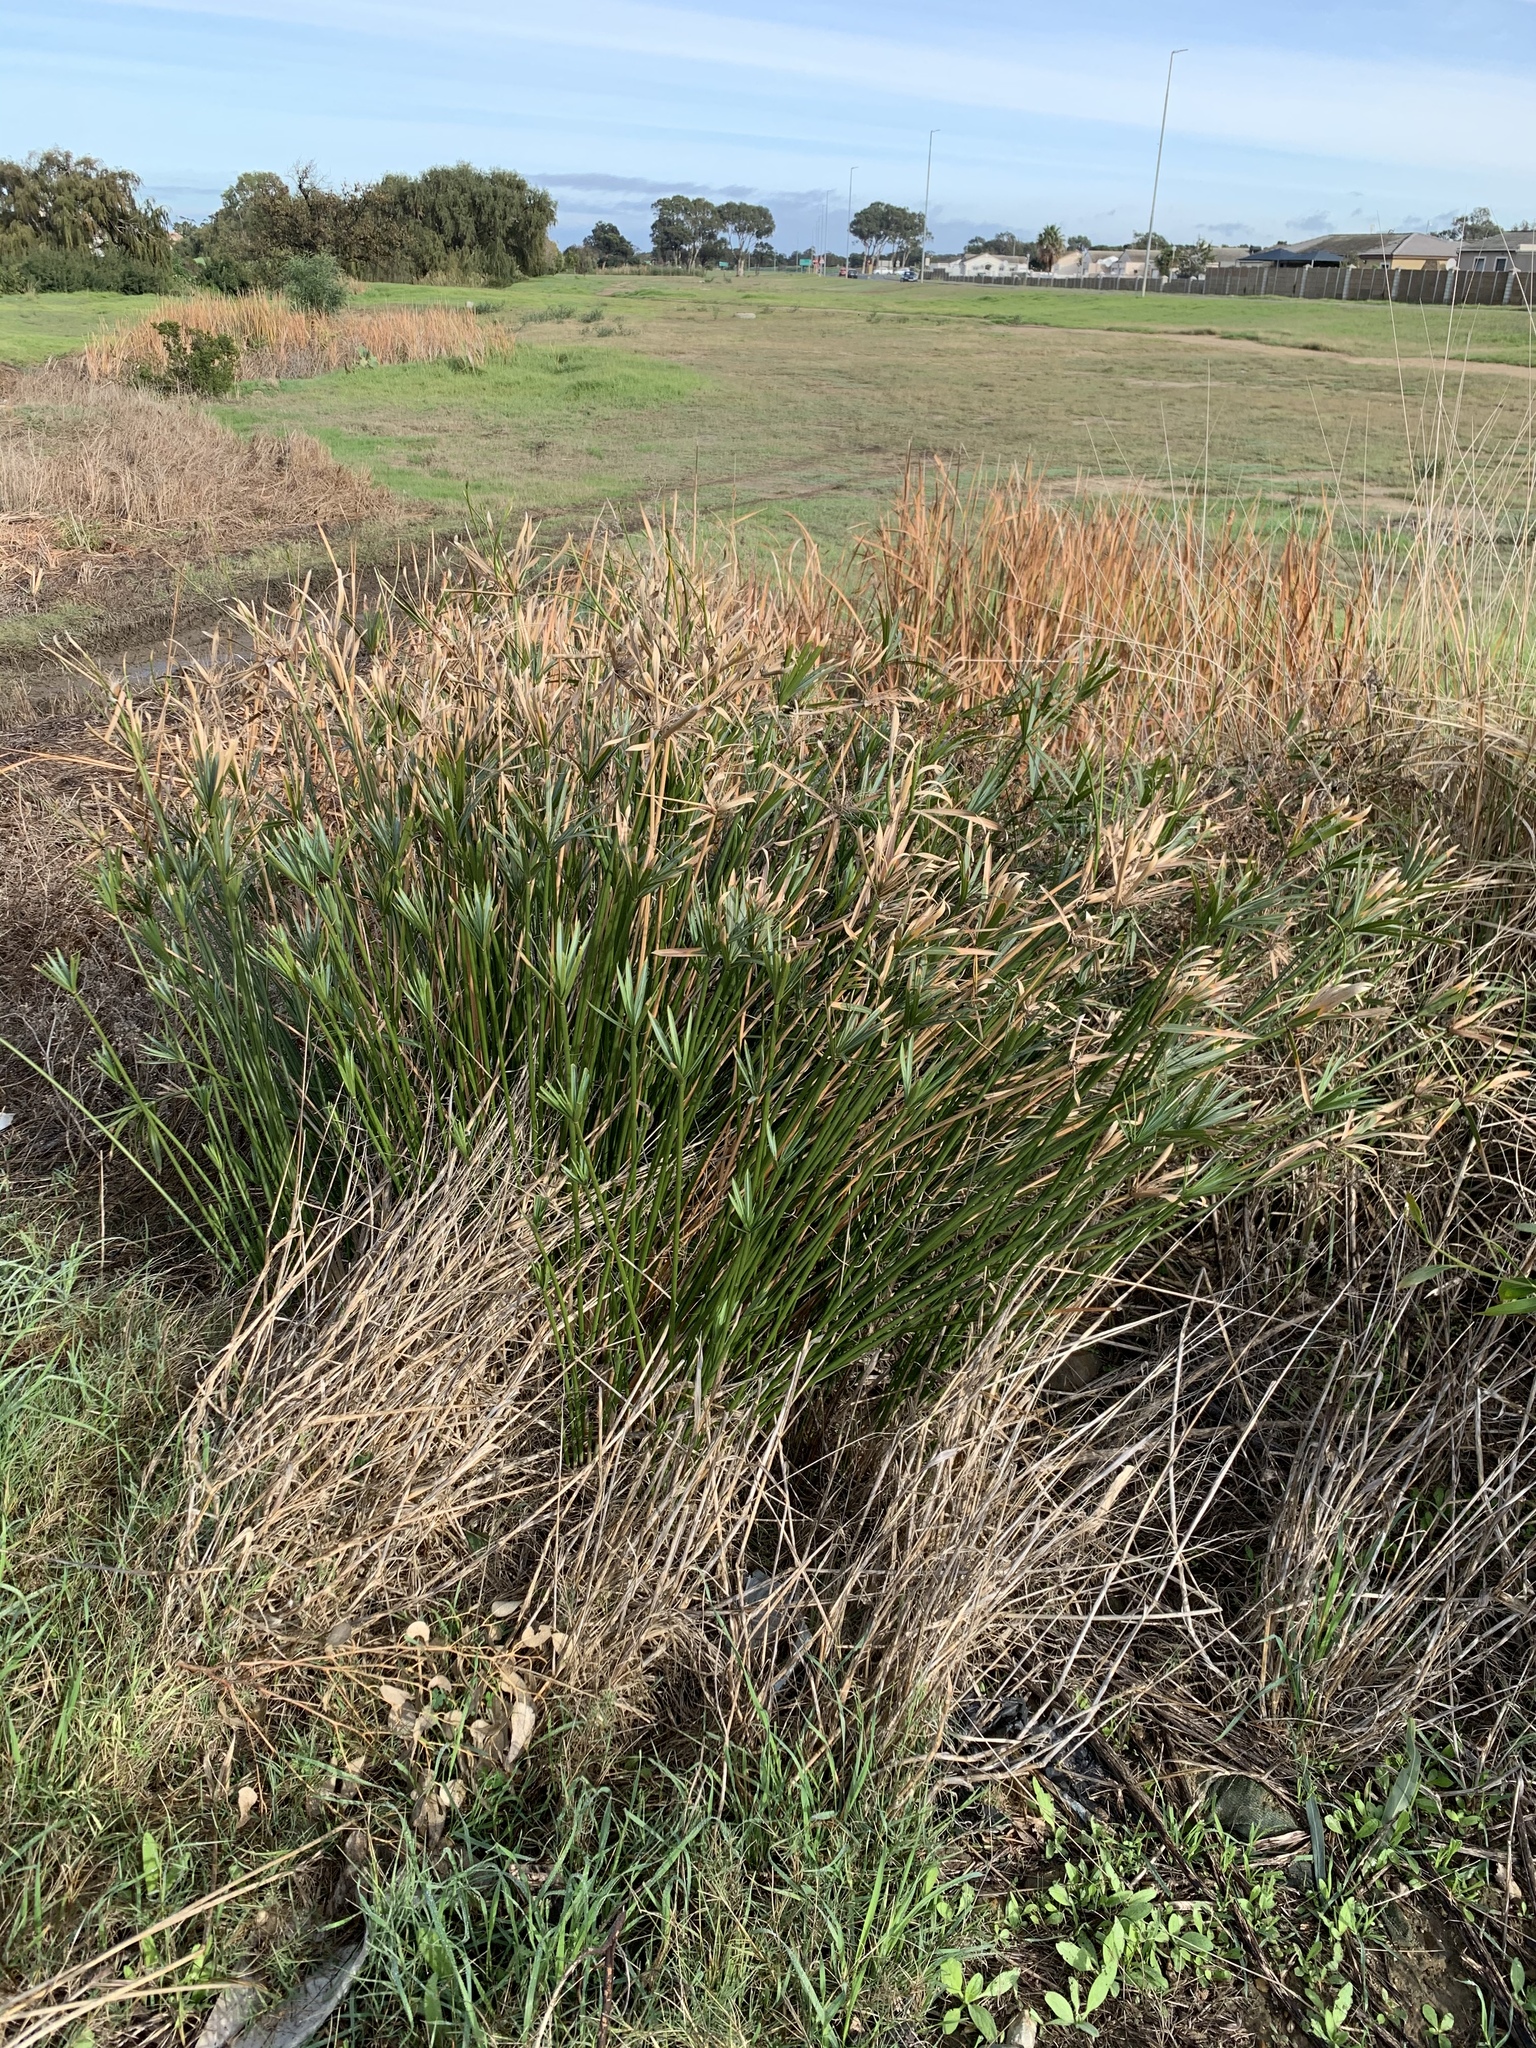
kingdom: Plantae
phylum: Tracheophyta
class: Liliopsida
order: Poales
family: Cyperaceae
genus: Cyperus
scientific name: Cyperus textilis
